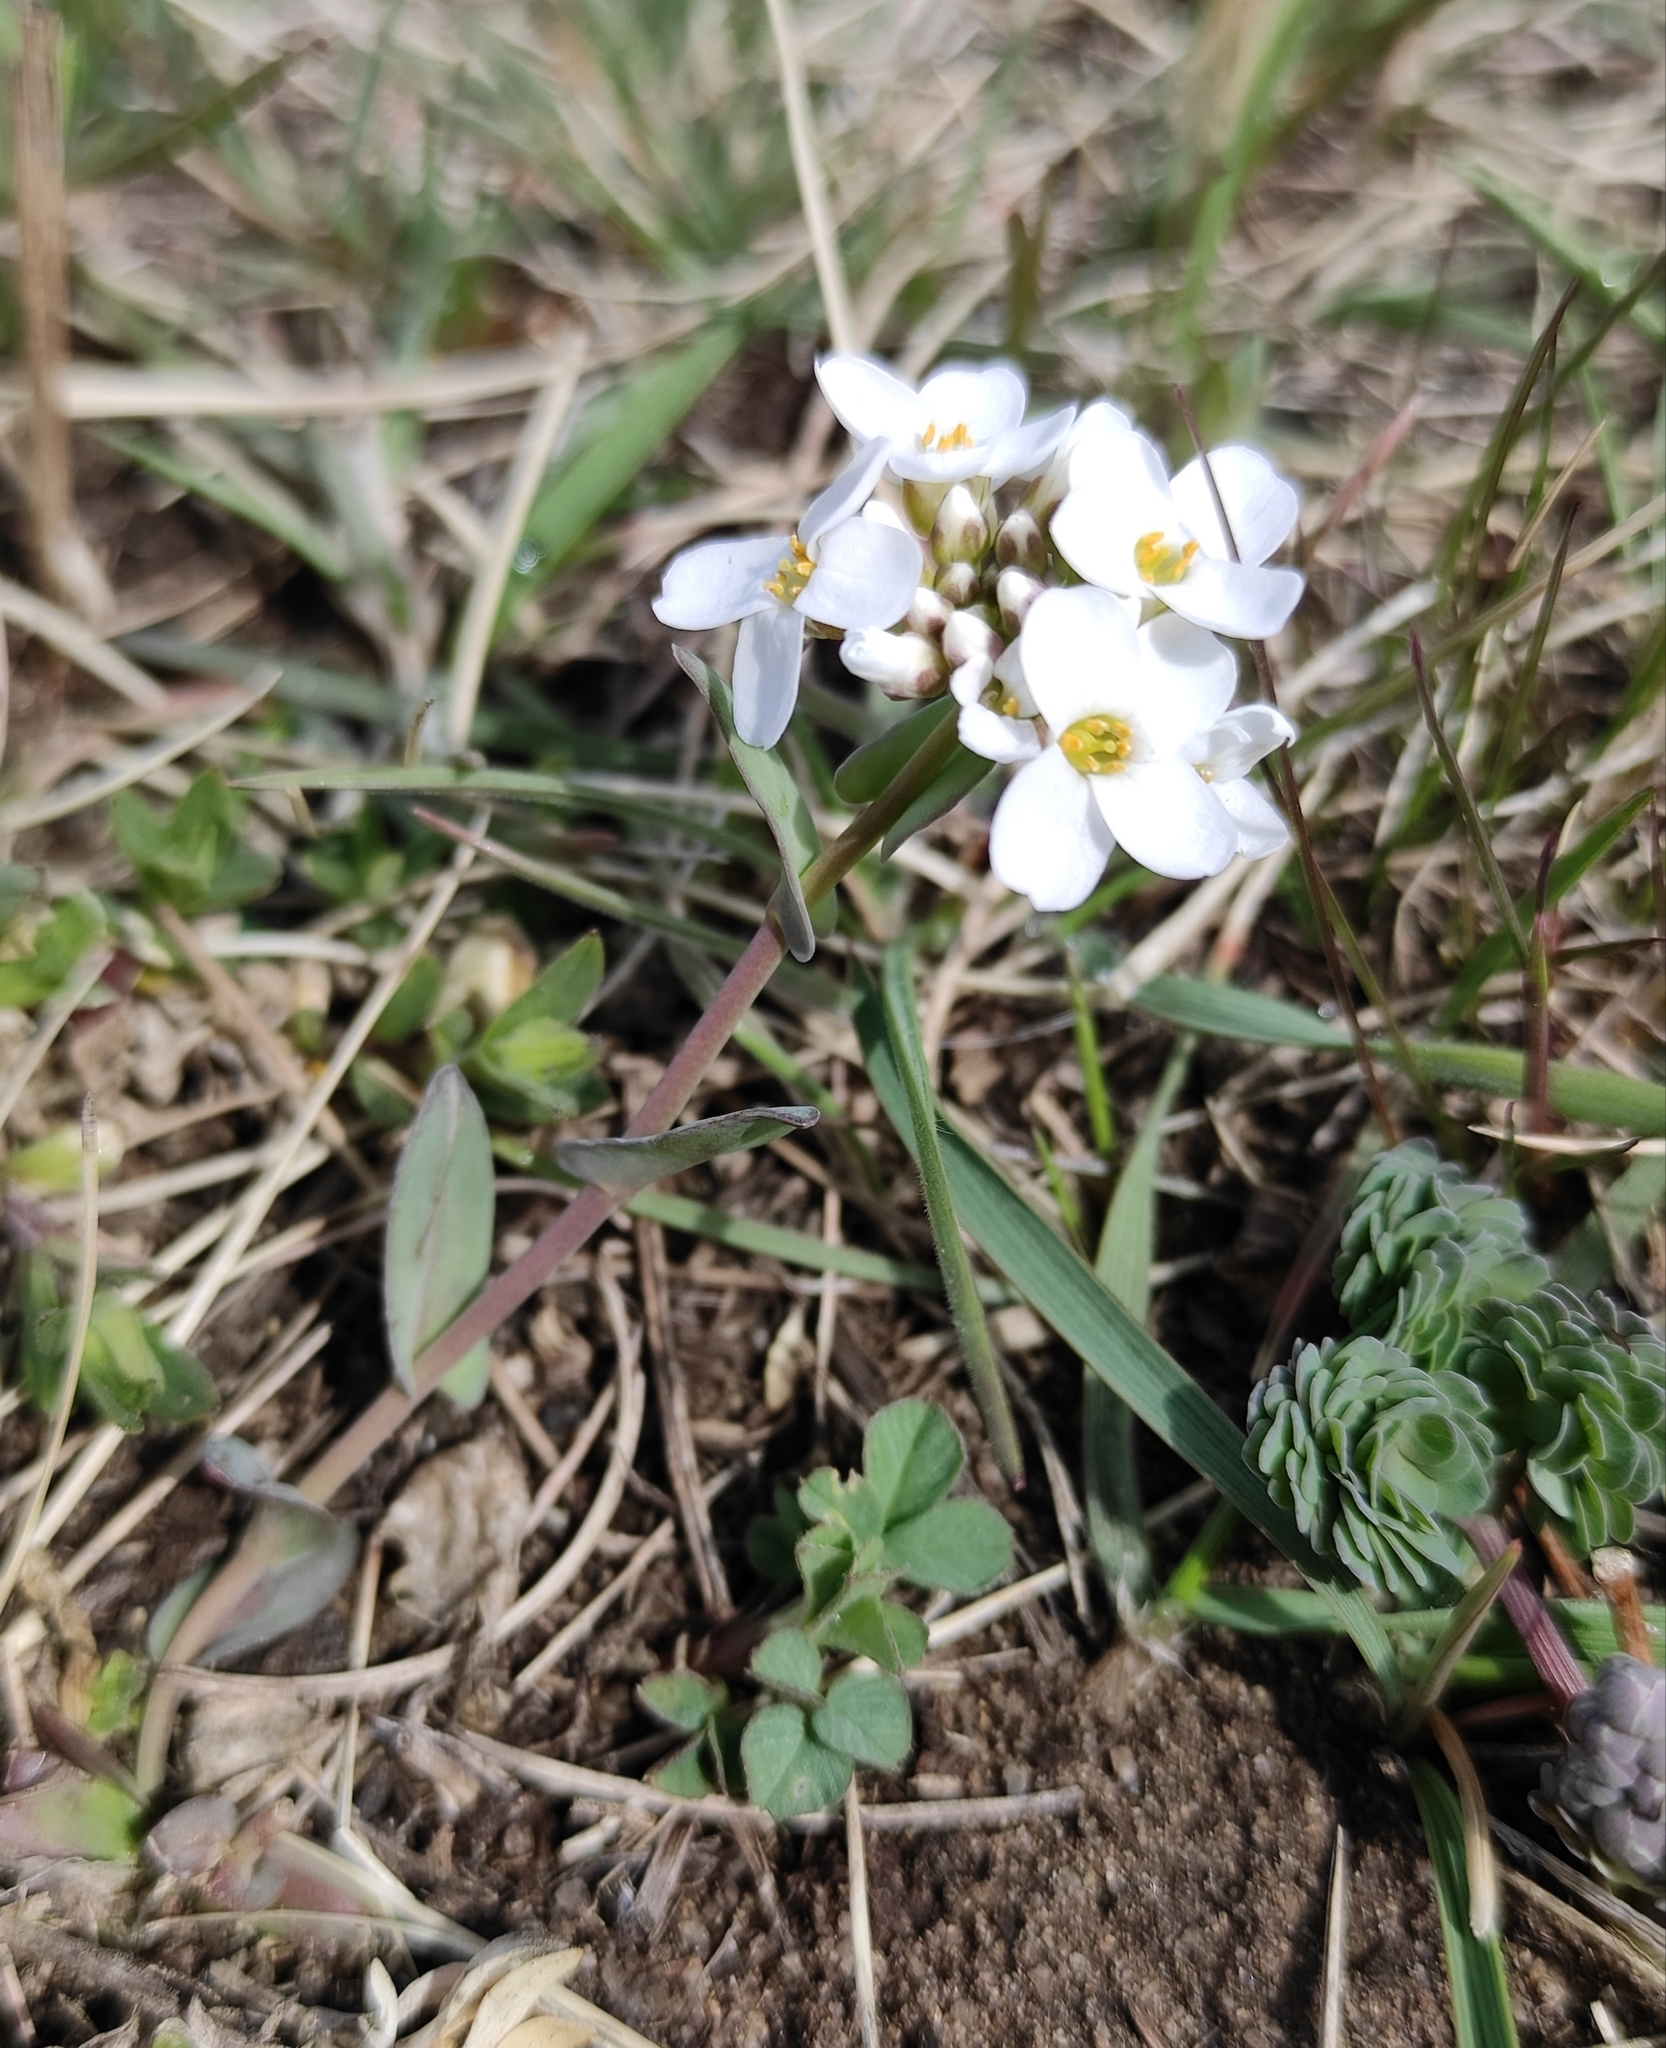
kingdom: Plantae
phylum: Tracheophyta
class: Magnoliopsida
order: Brassicales
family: Brassicaceae
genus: Noccaea
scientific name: Noccaea thlaspidioides
